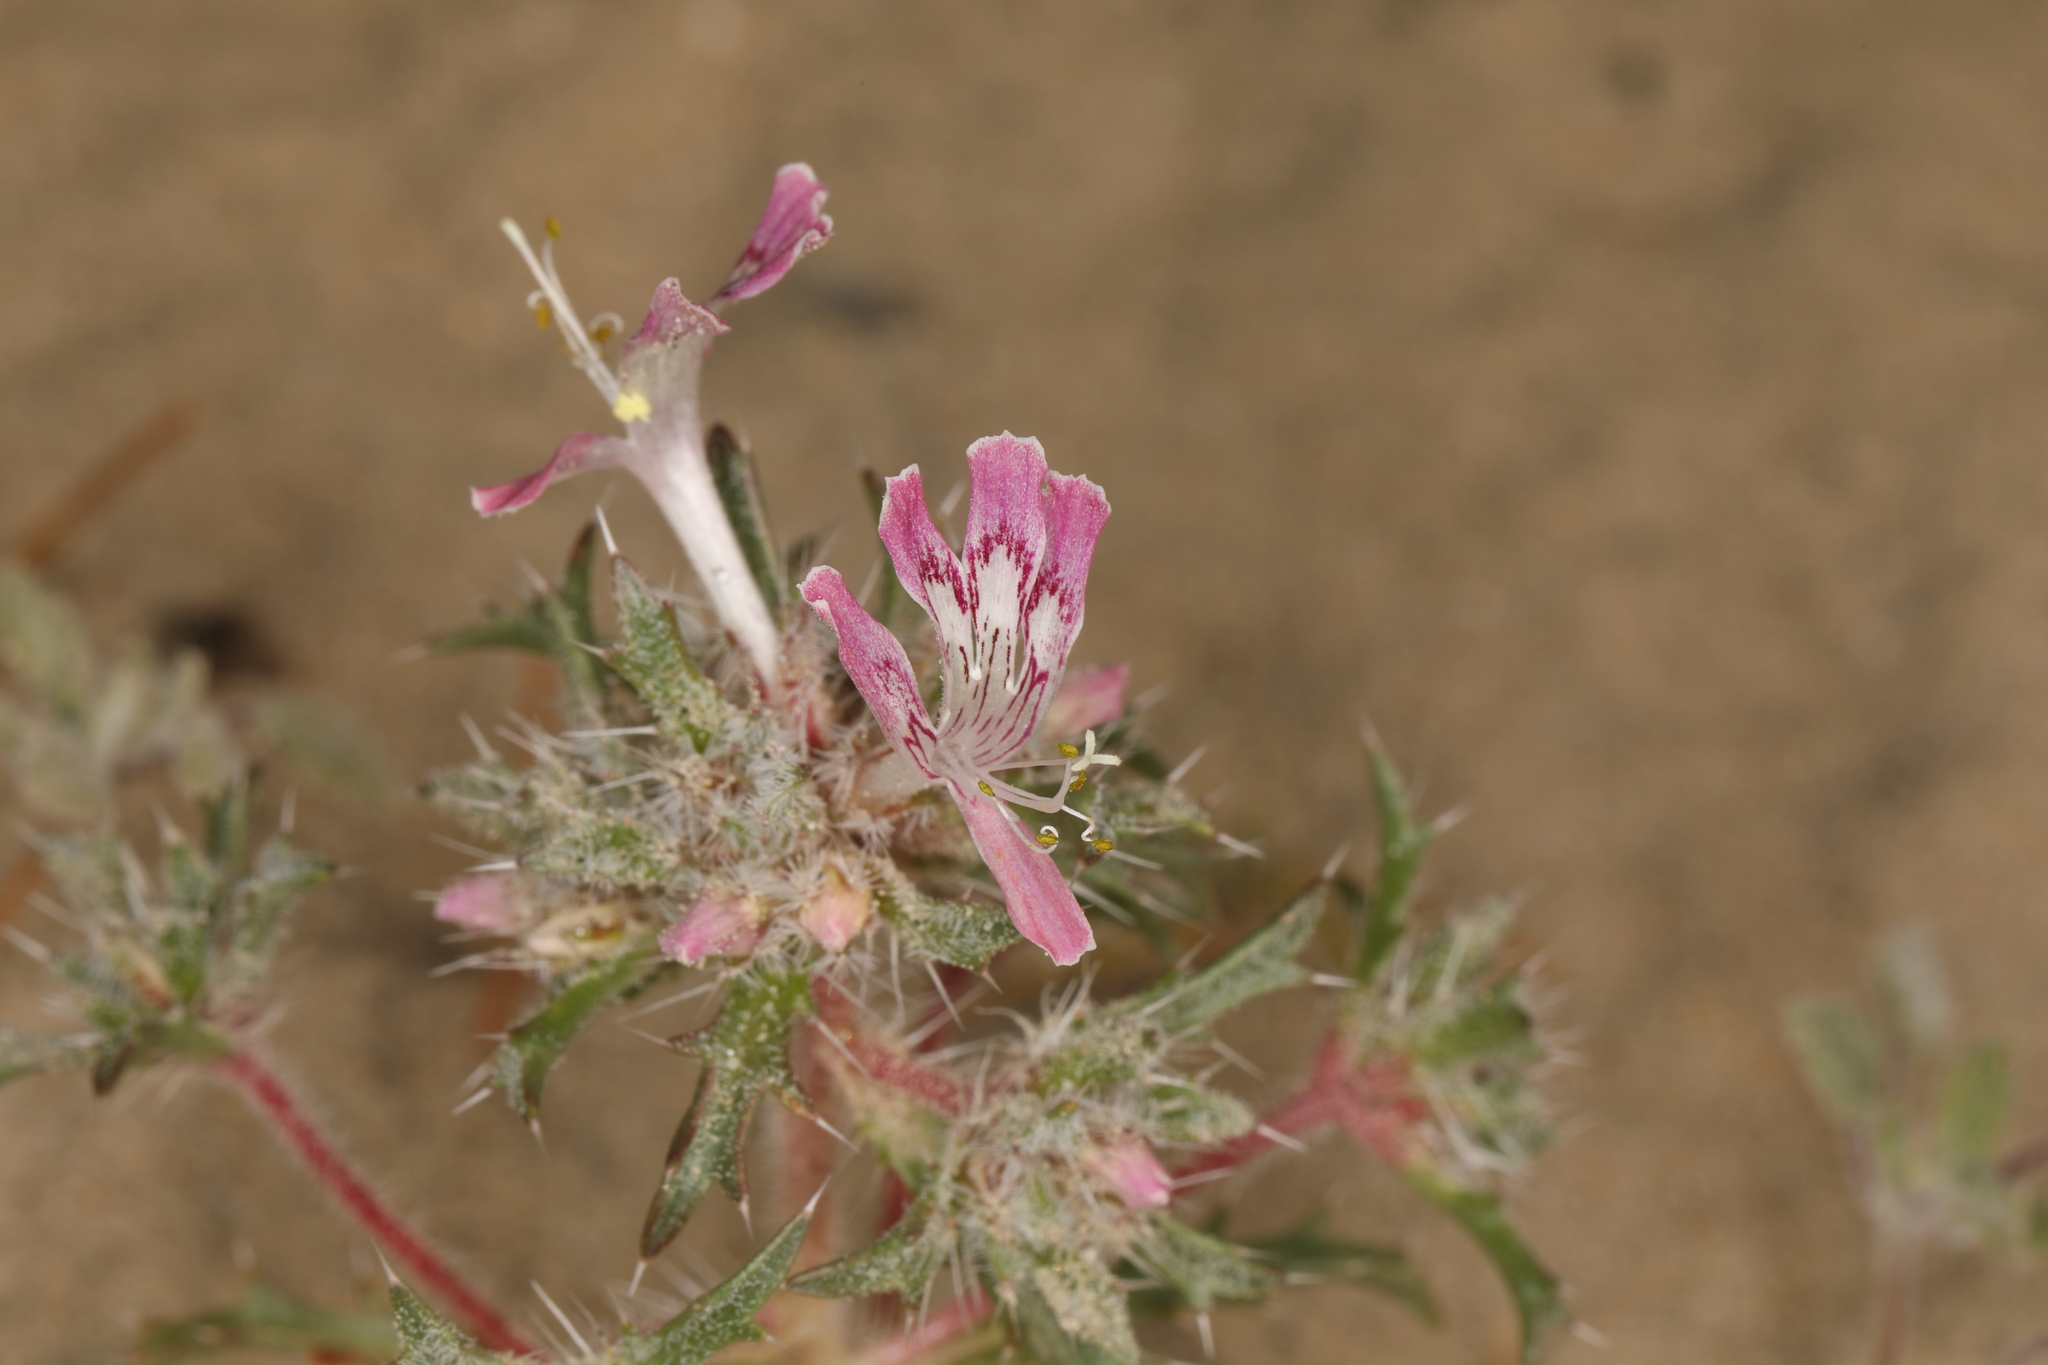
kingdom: Plantae
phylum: Tracheophyta
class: Magnoliopsida
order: Ericales
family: Polemoniaceae
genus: Loeseliastrum
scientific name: Loeseliastrum matthewsii
